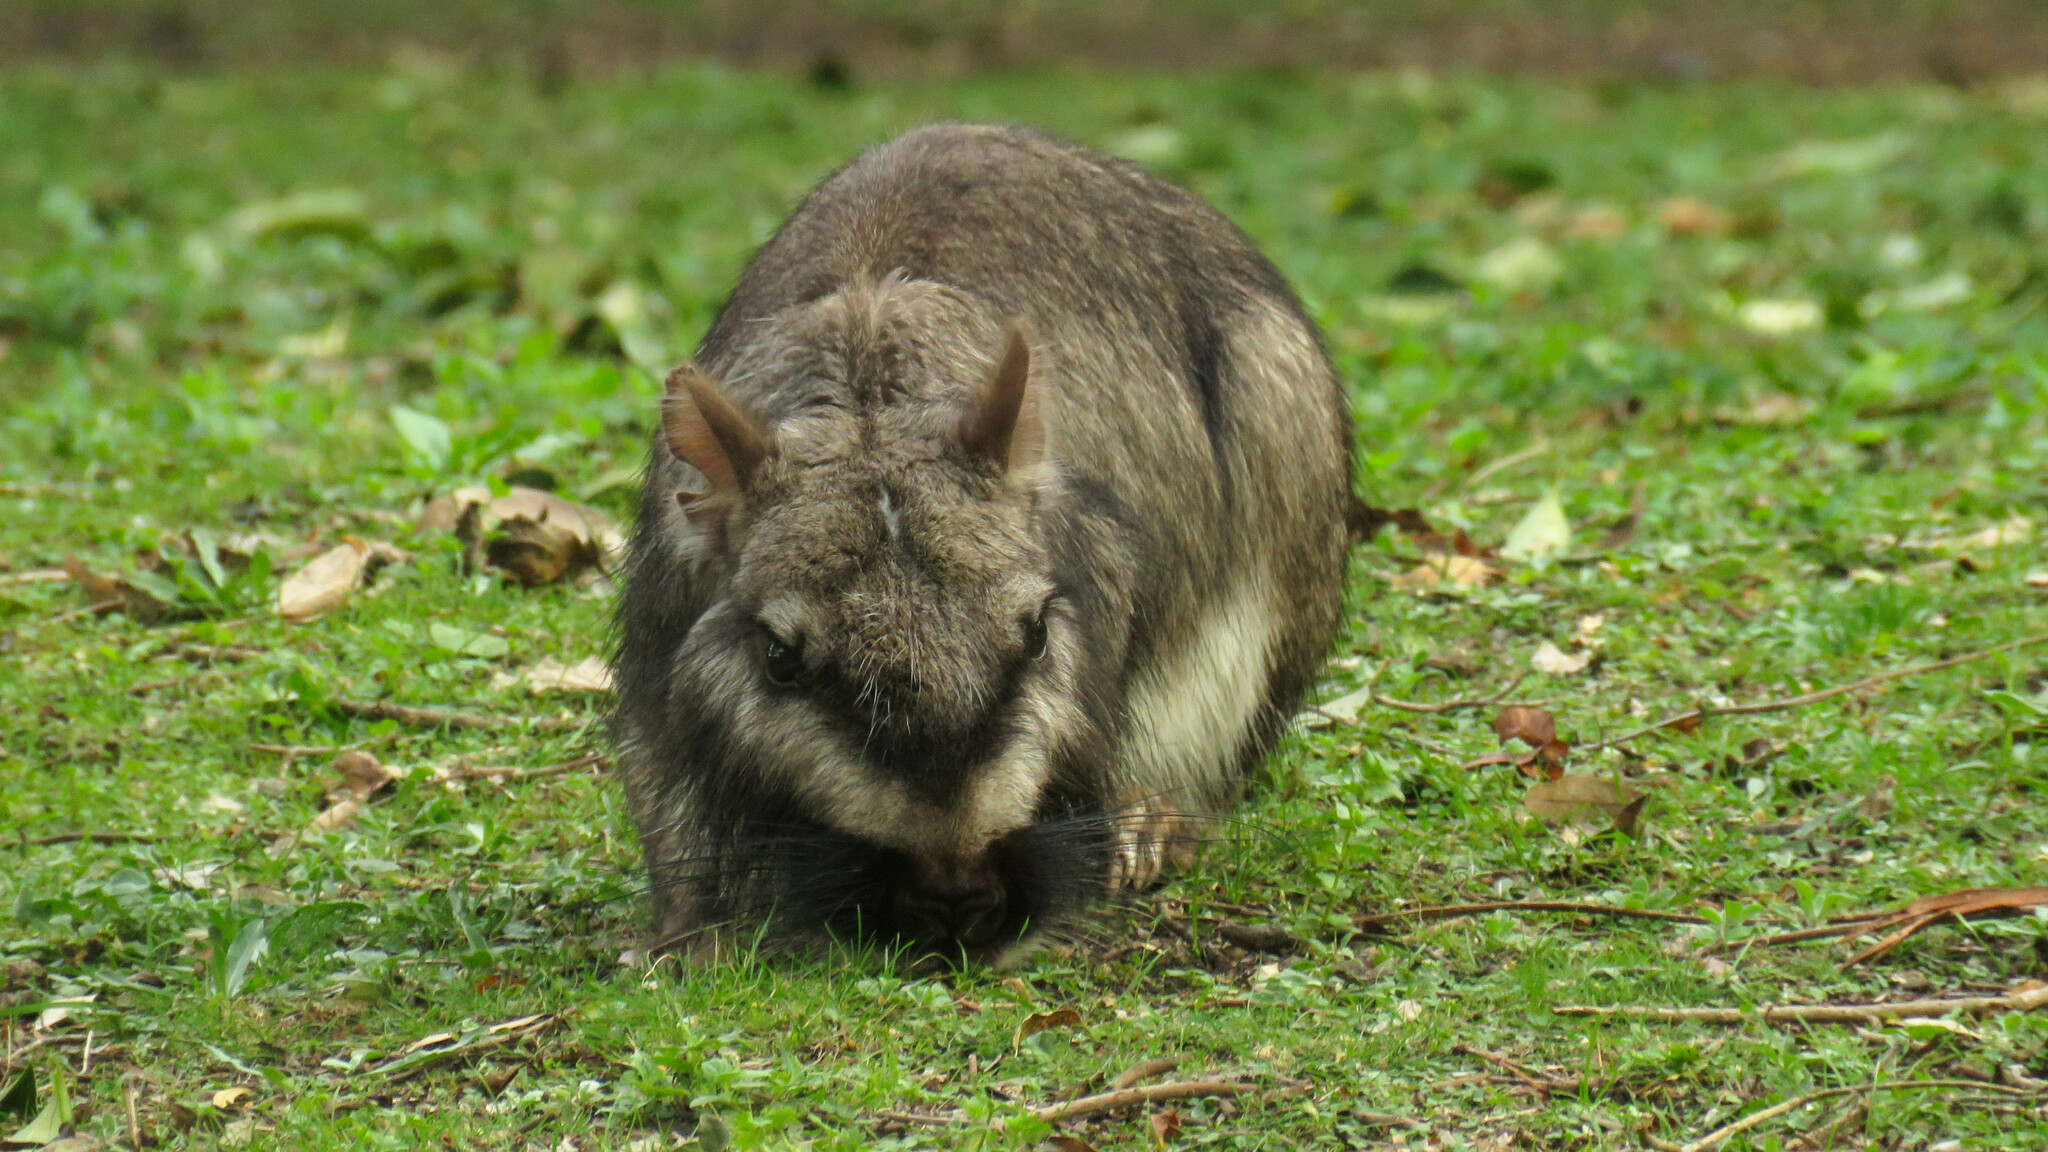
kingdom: Animalia
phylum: Chordata
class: Mammalia
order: Rodentia
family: Chinchillidae
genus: Lagostomus
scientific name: Lagostomus maximus
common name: Plains viscacha
